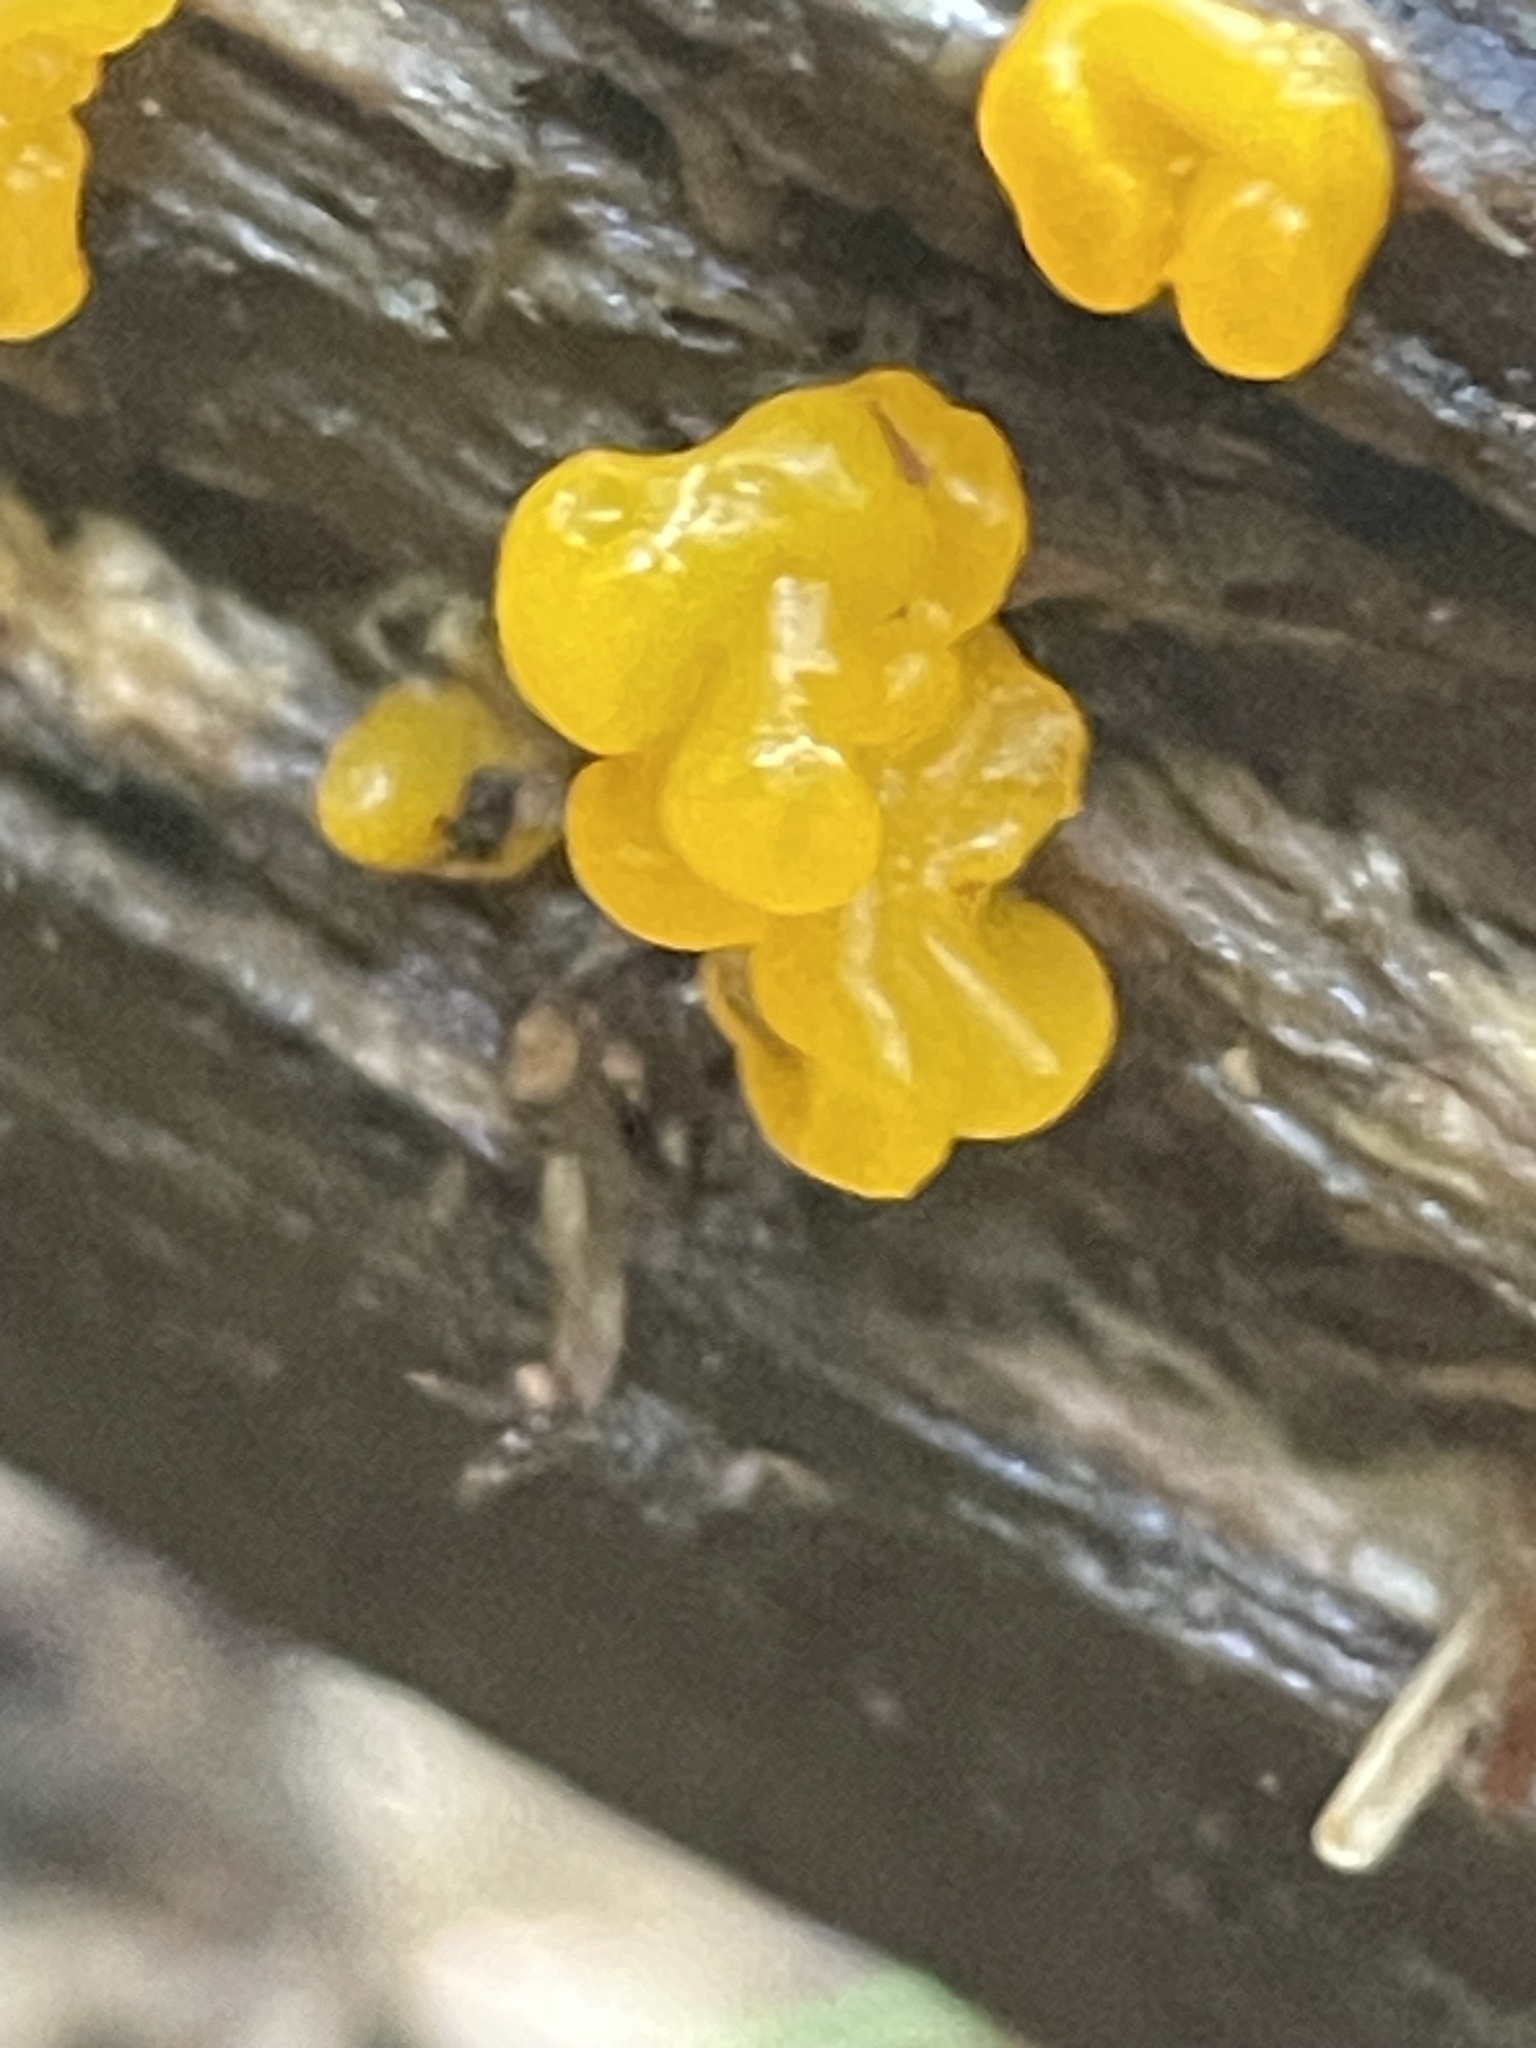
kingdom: Fungi
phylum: Basidiomycota
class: Tremellomycetes
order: Tremellales
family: Tremellaceae
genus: Tremella
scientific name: Tremella mesenterica
